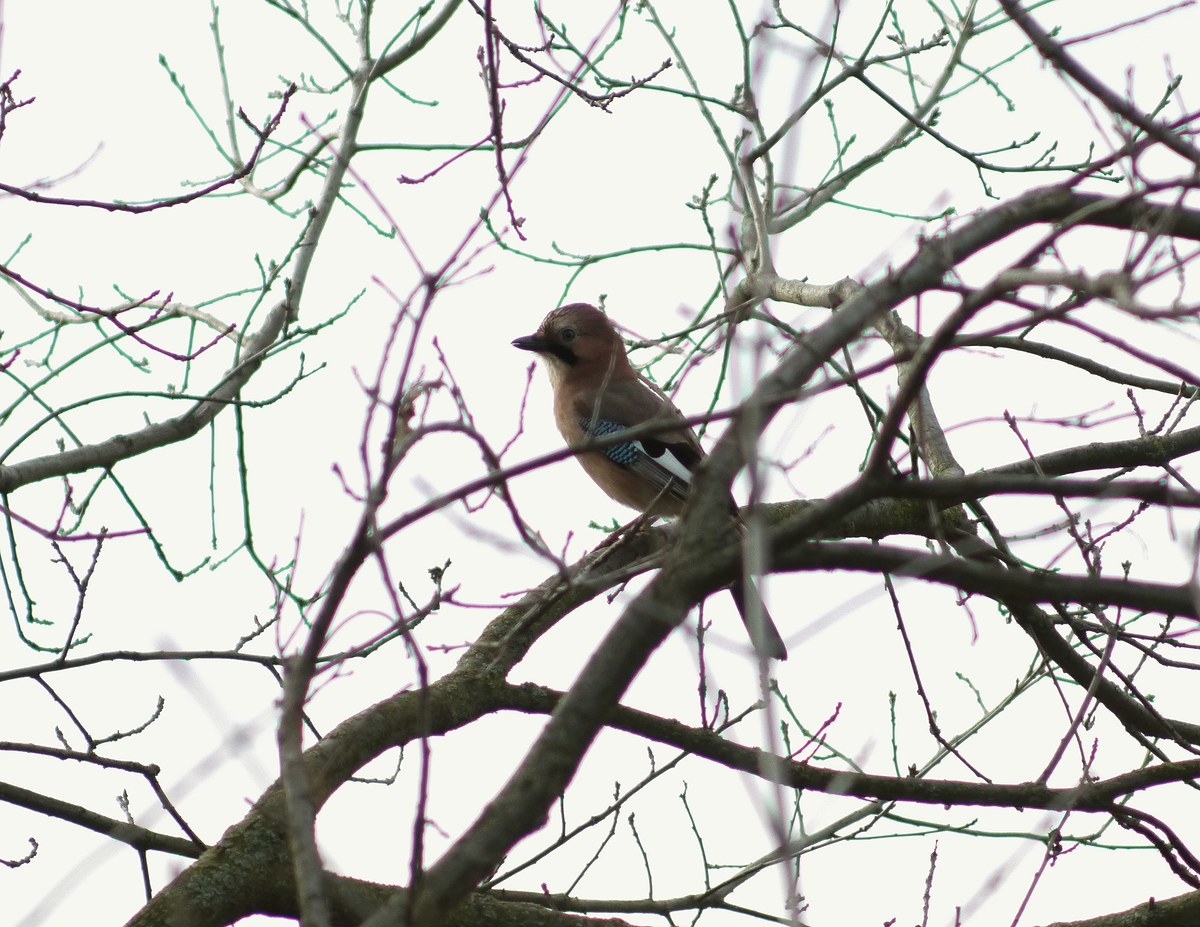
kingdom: Animalia
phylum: Chordata
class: Aves
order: Passeriformes
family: Corvidae
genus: Garrulus
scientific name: Garrulus glandarius
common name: Eurasian jay
